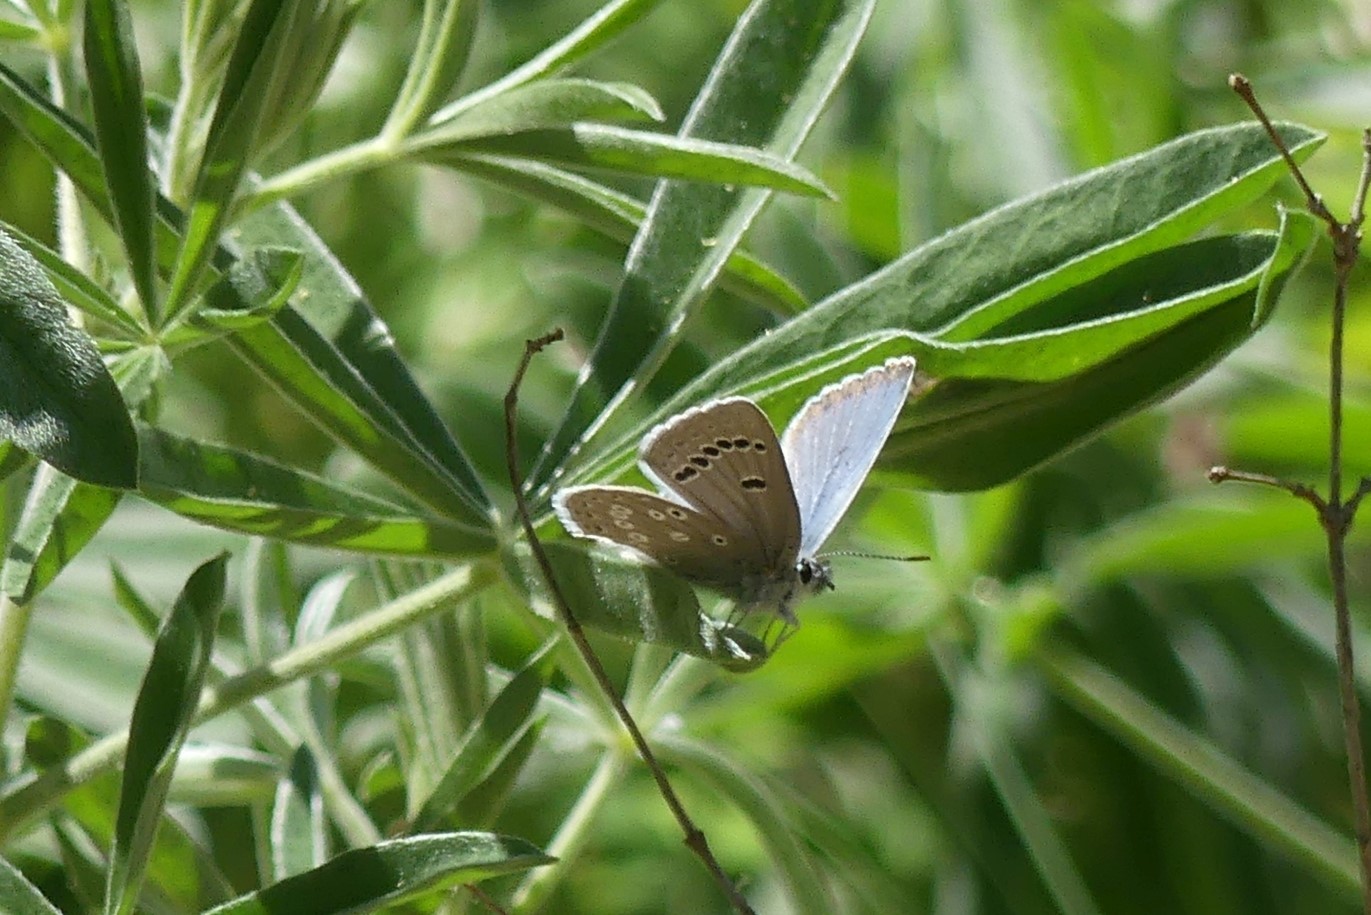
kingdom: Animalia
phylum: Arthropoda
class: Insecta
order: Lepidoptera
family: Lycaenidae
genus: Icaricia
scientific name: Icaricia icarioides
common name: Boisduval's blue
